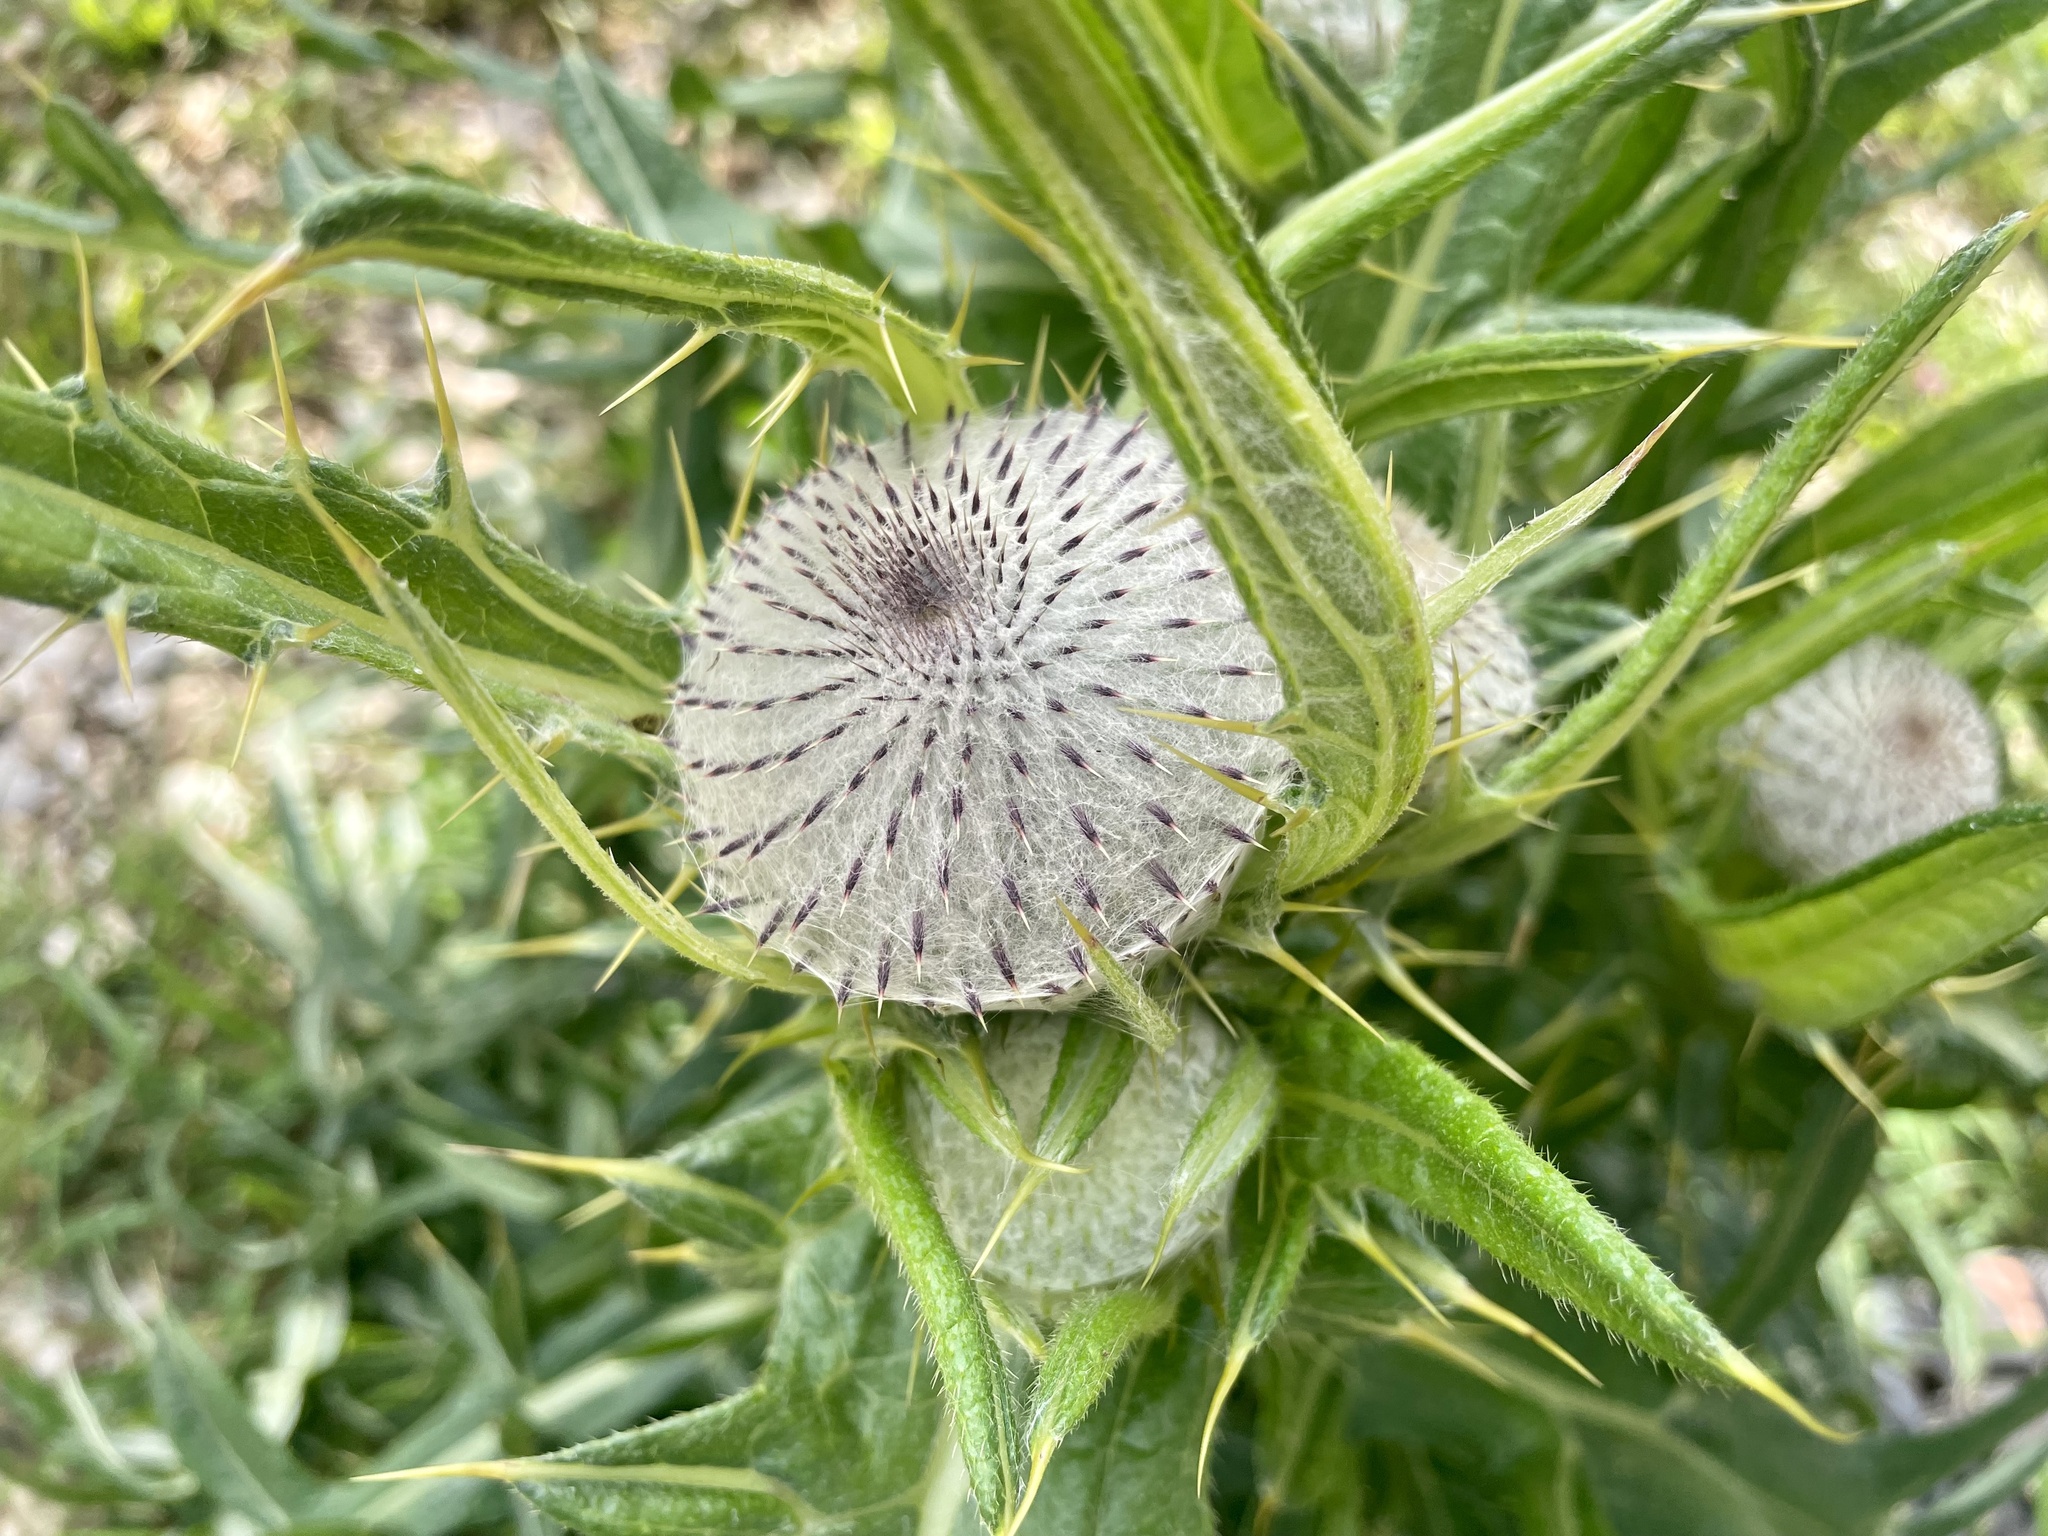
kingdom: Plantae
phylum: Tracheophyta
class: Magnoliopsida
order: Asterales
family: Asteraceae
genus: Lophiolepis
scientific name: Lophiolepis eriophora
